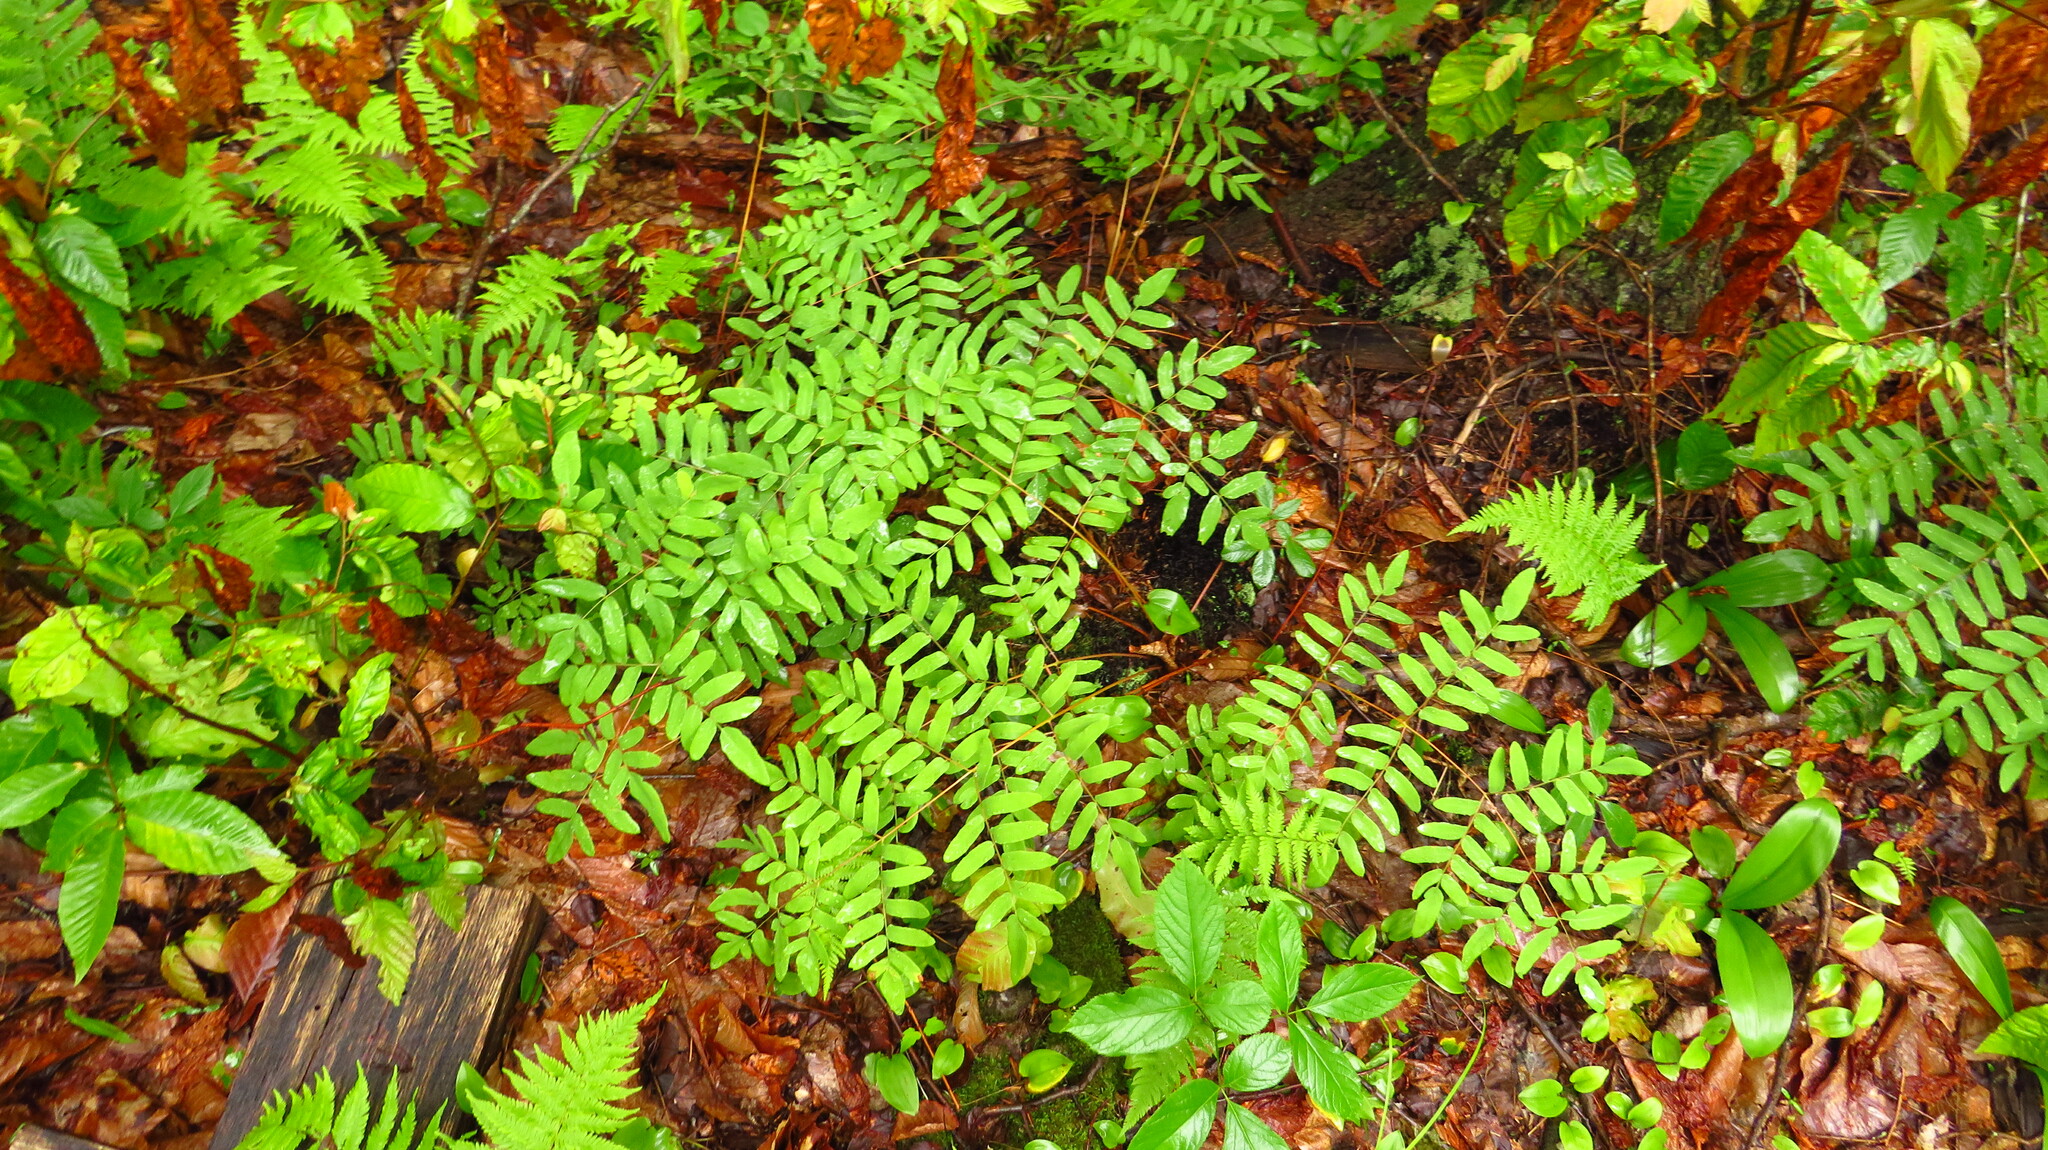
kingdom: Plantae
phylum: Tracheophyta
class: Polypodiopsida
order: Osmundales
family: Osmundaceae
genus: Osmunda
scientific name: Osmunda spectabilis
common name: American royal fern
